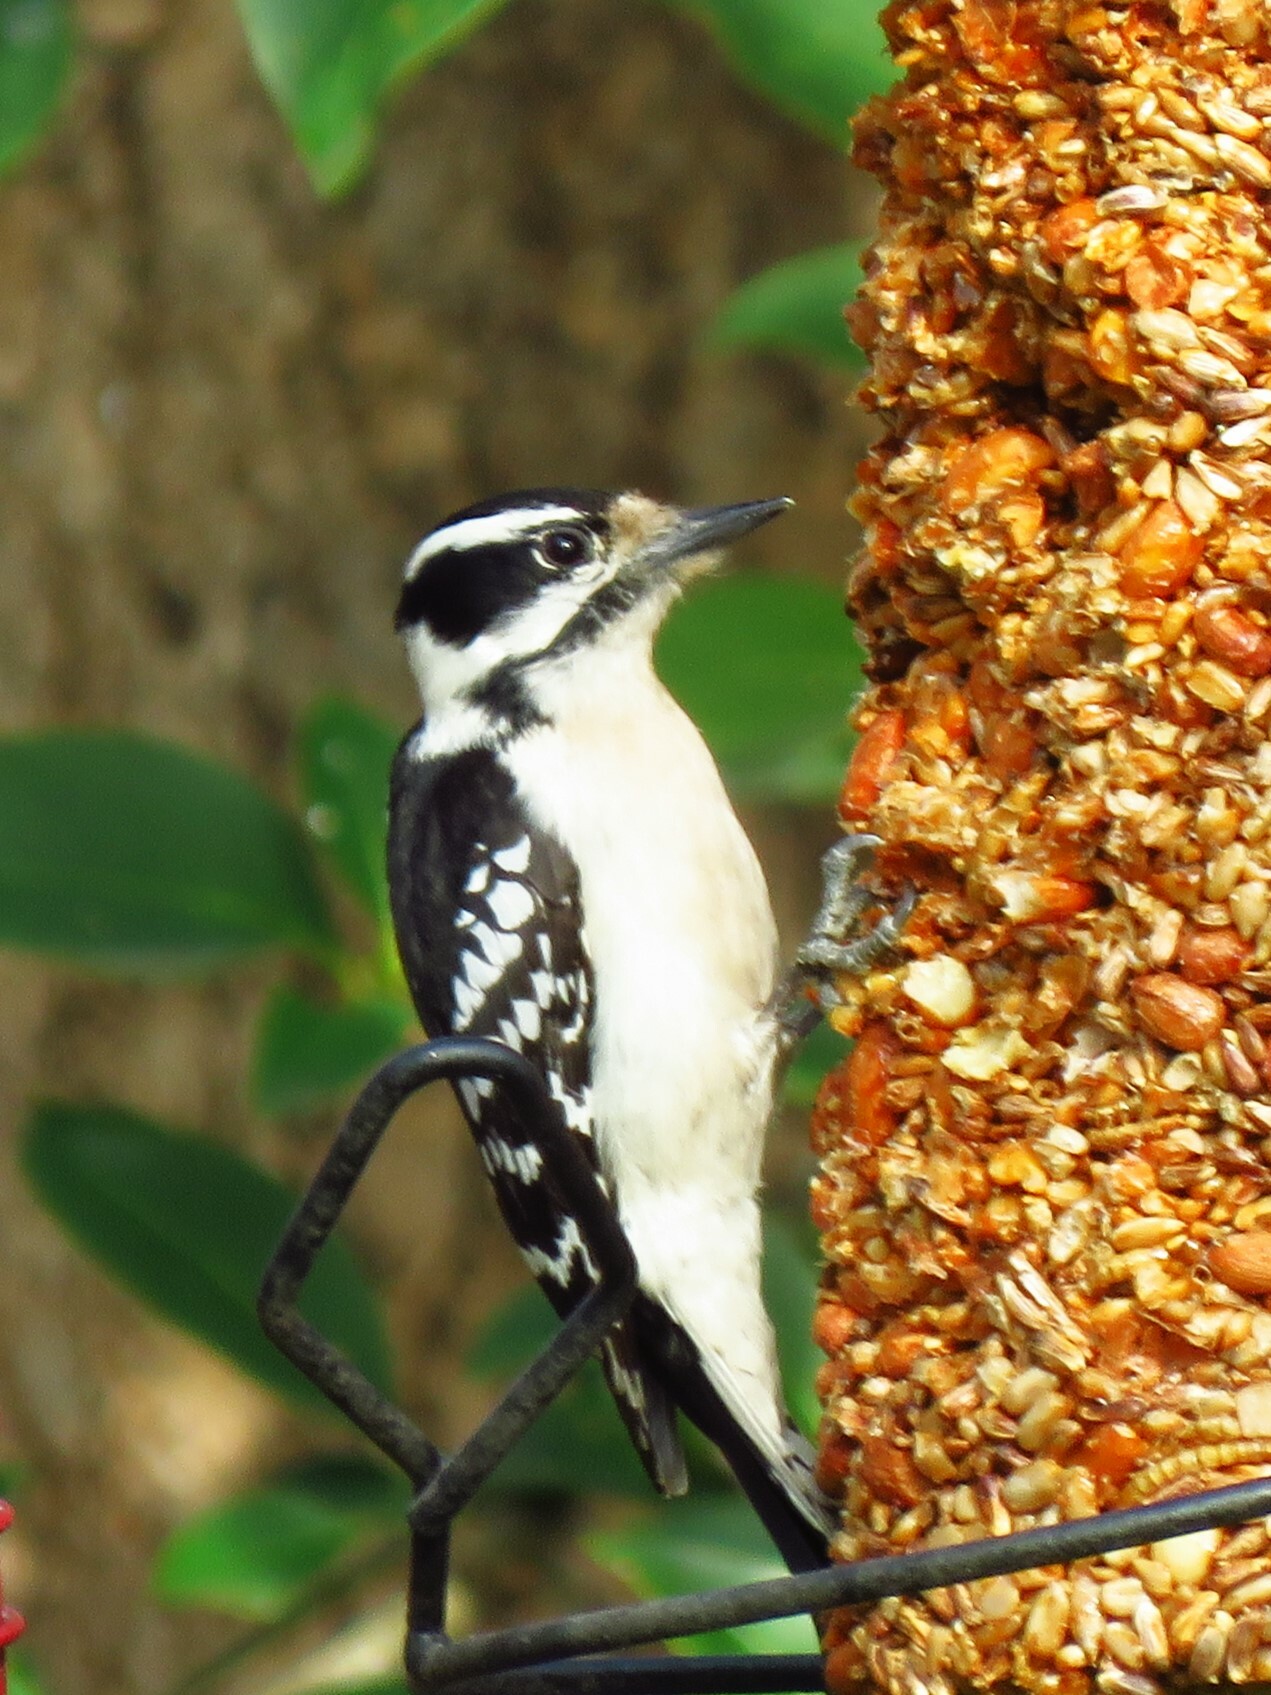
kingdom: Animalia
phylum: Chordata
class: Aves
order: Piciformes
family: Picidae
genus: Dryobates
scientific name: Dryobates pubescens
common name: Downy woodpecker
